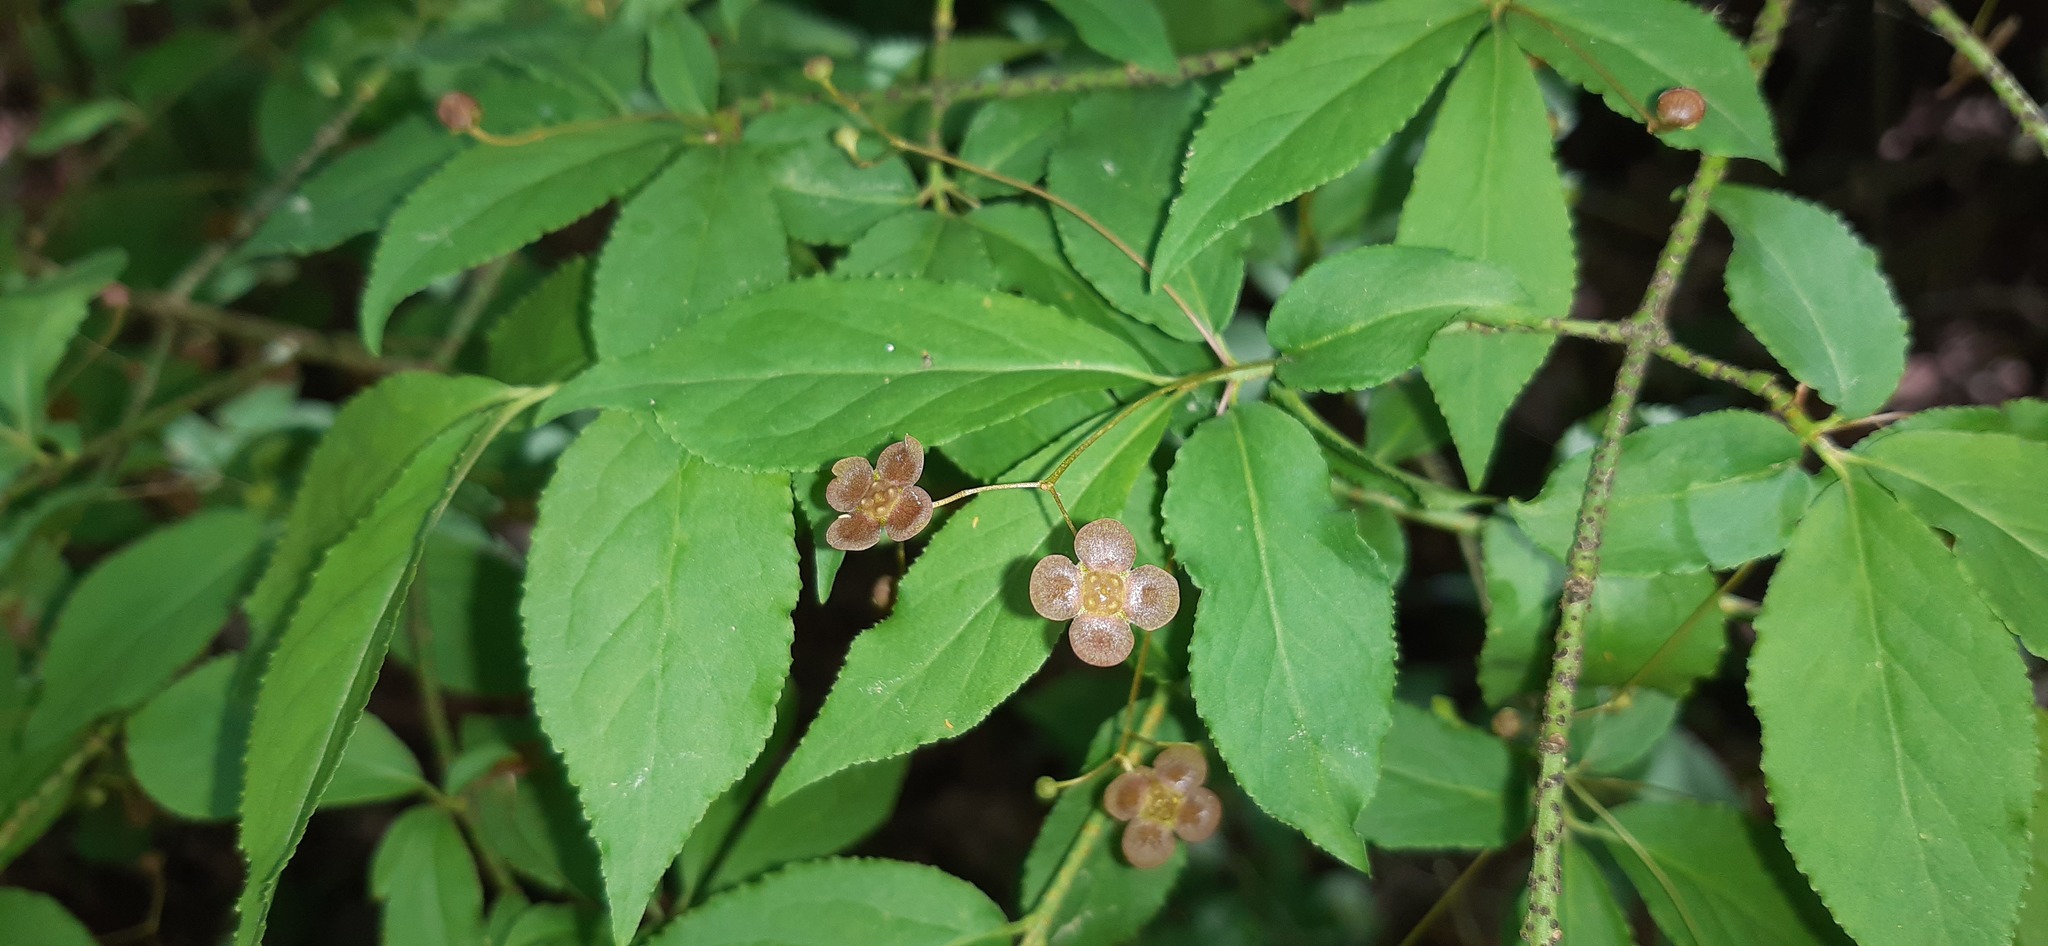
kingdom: Plantae
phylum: Tracheophyta
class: Magnoliopsida
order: Celastrales
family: Celastraceae
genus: Euonymus
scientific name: Euonymus verrucosus
